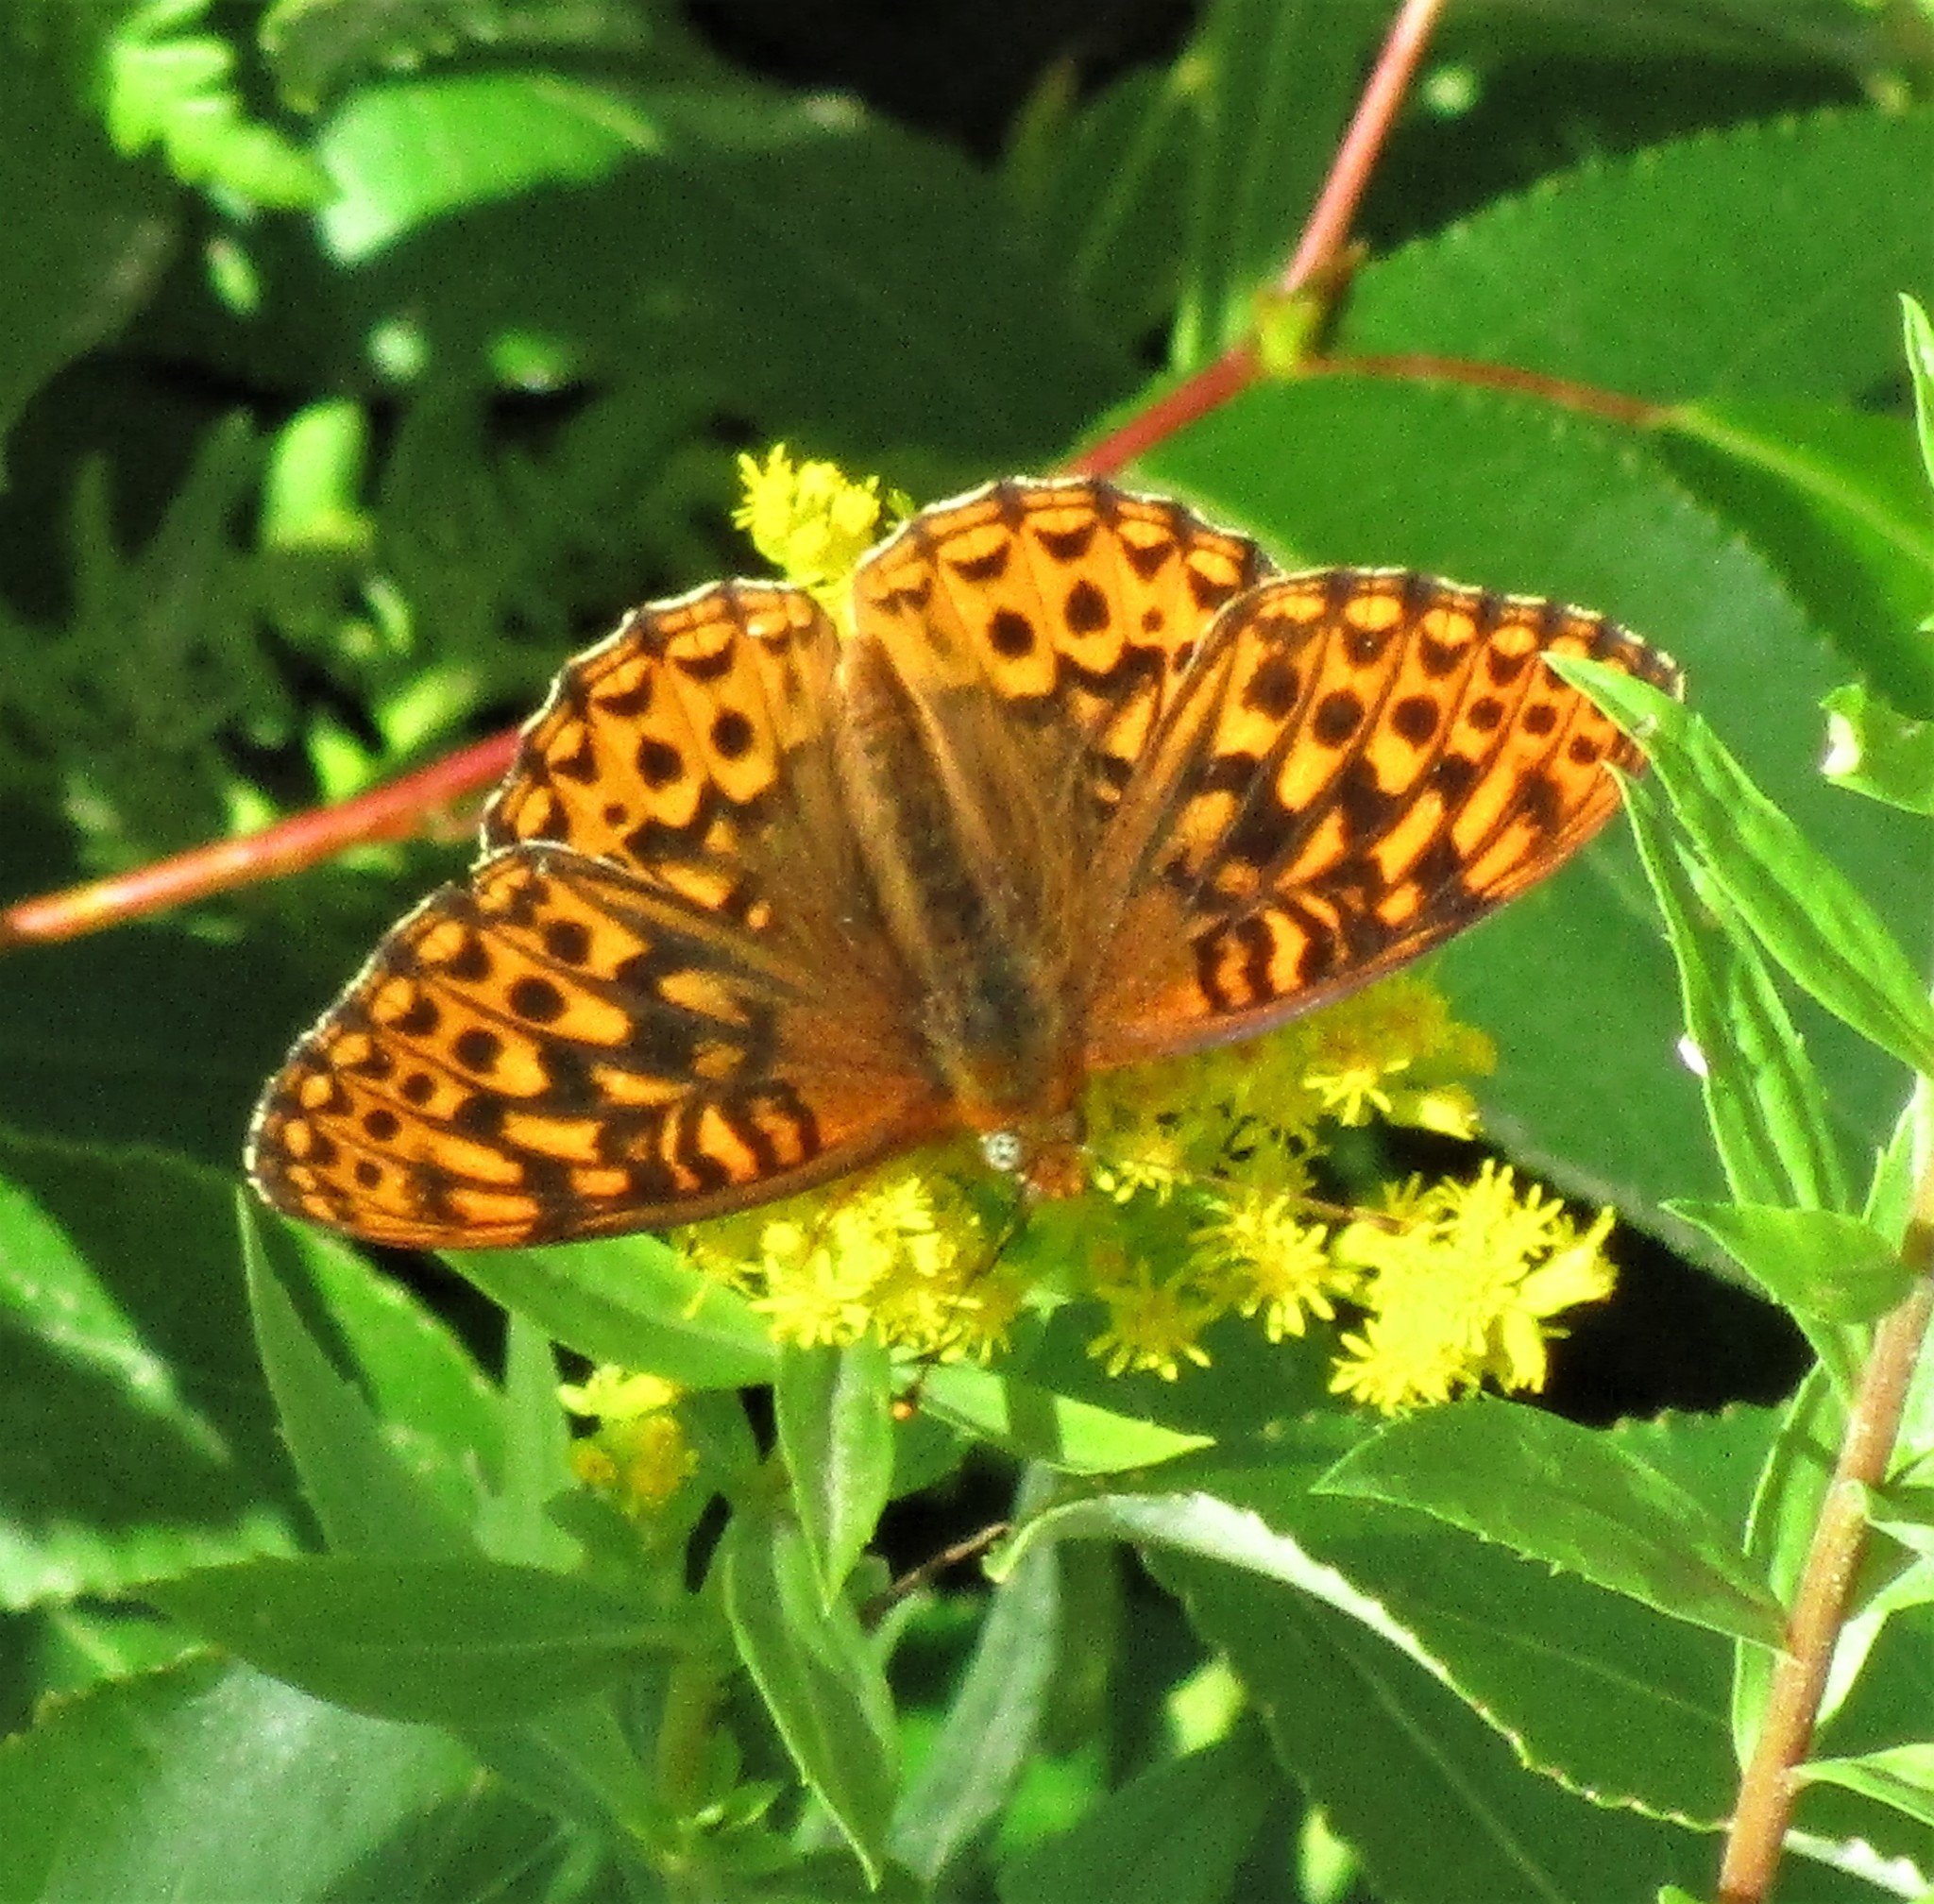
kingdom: Animalia
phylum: Arthropoda
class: Insecta
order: Lepidoptera
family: Nymphalidae
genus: Speyeria
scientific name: Speyeria atlantis
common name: Atlantis fritillary
